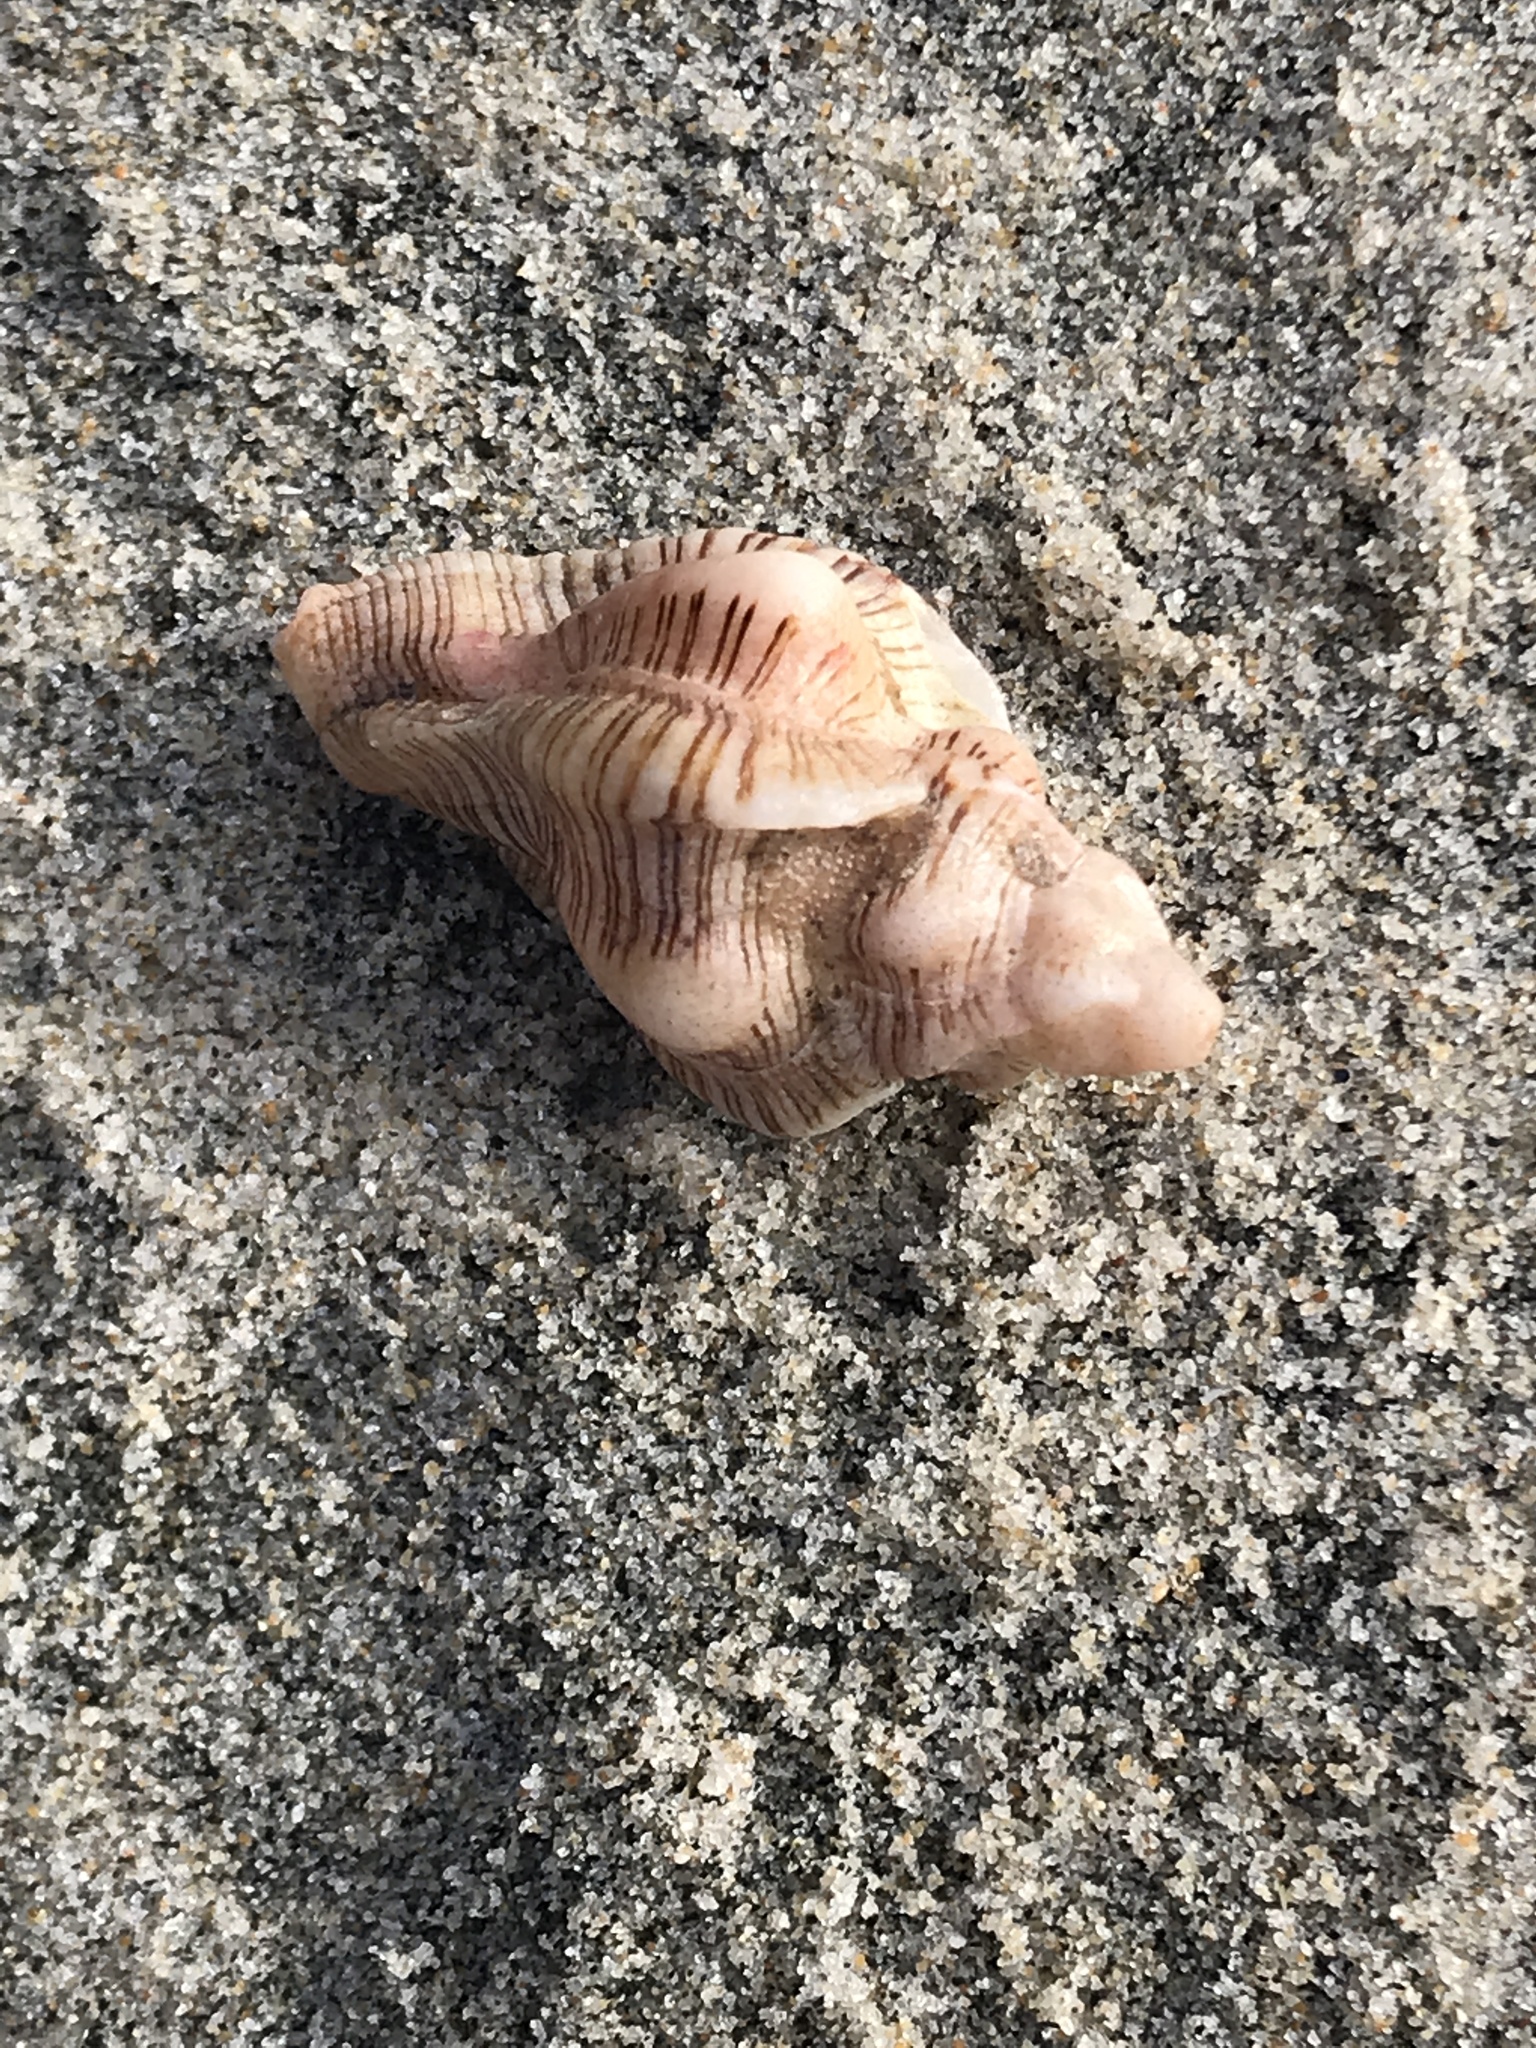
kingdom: Animalia
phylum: Mollusca
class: Gastropoda
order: Neogastropoda
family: Muricidae
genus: Pteropurpura
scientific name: Pteropurpura festiva
